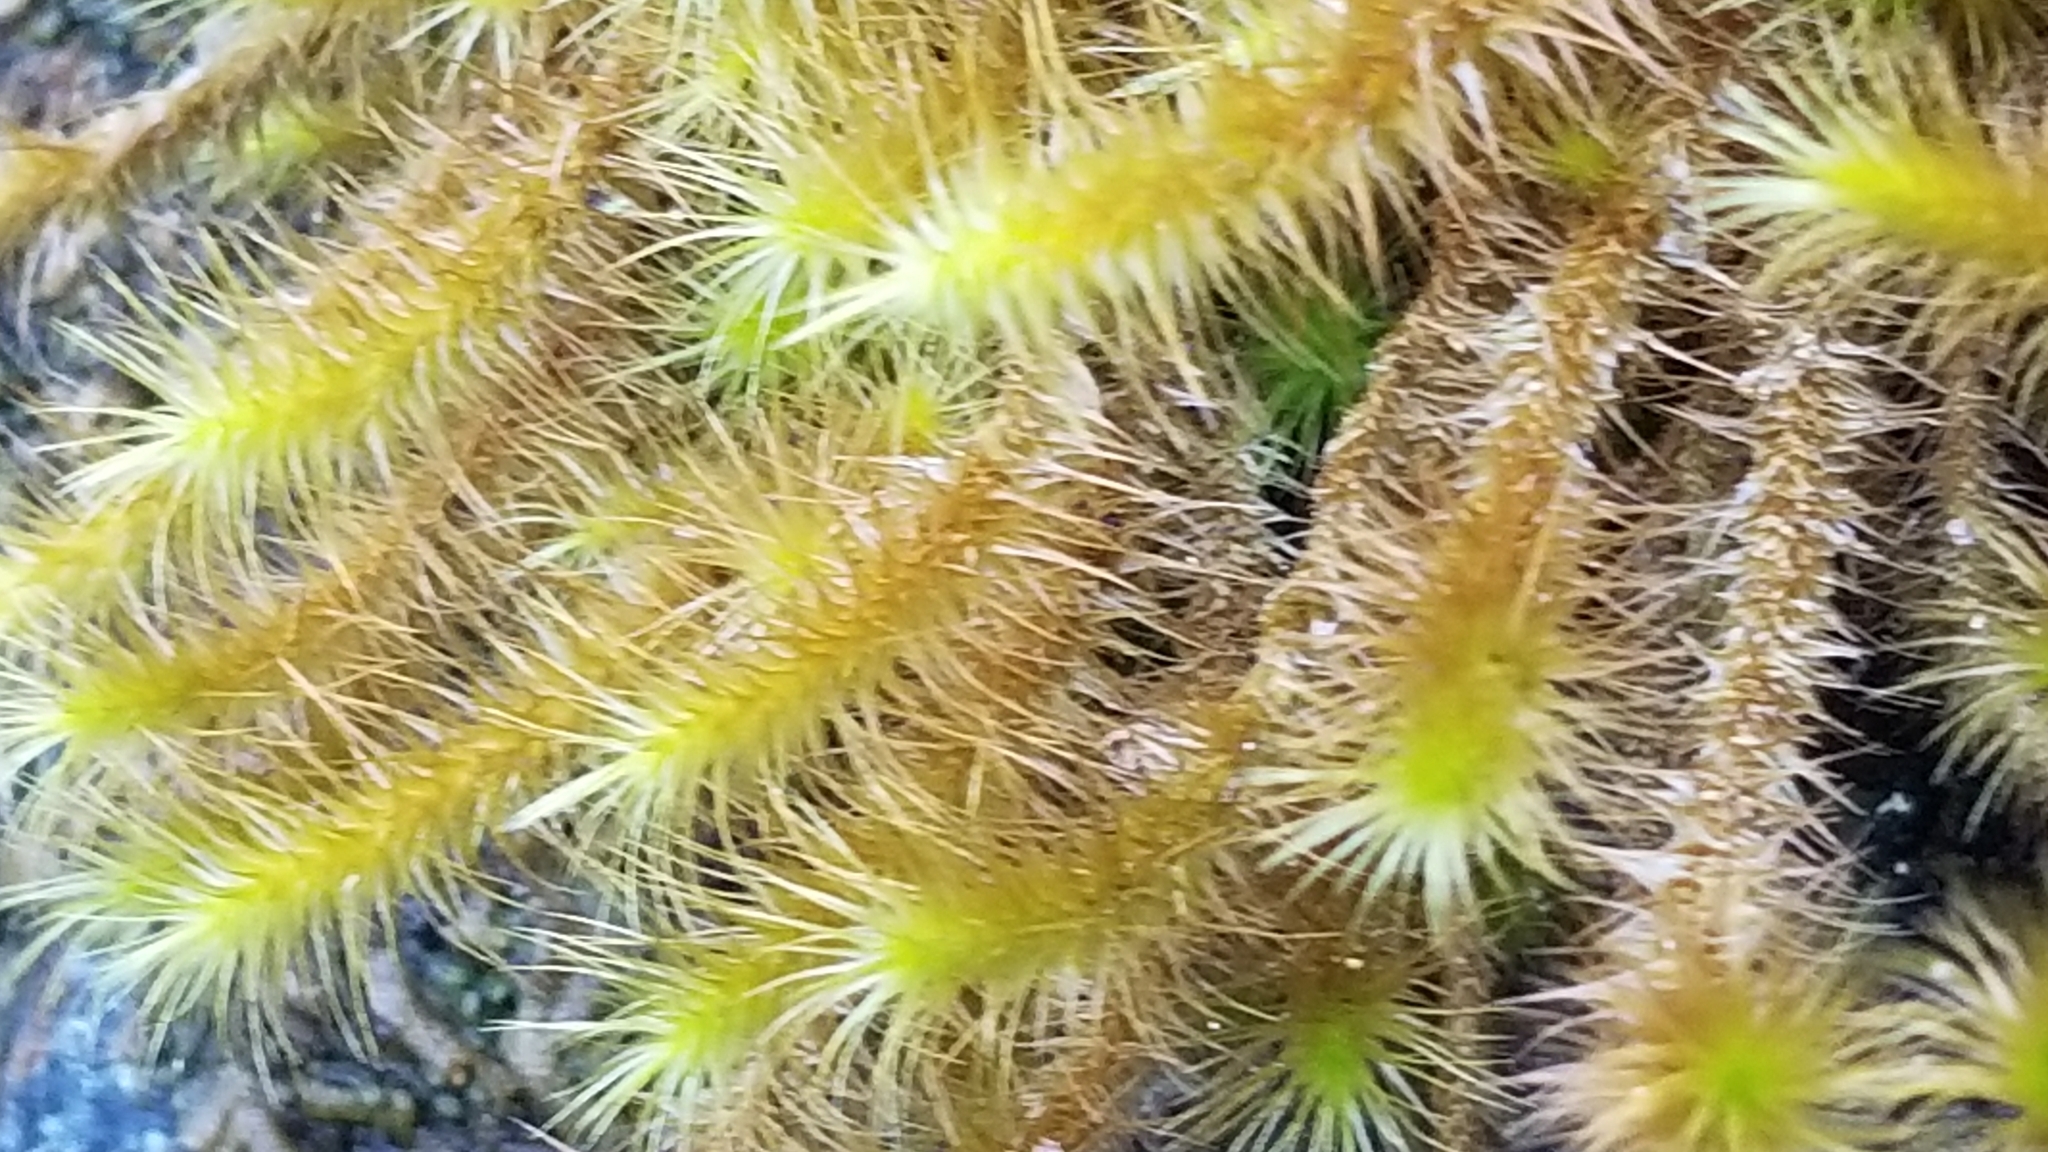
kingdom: Plantae
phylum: Bryophyta
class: Bryopsida
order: Hypnodendrales
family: Spiridentaceae
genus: Cyrtopus
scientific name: Cyrtopus setosus
